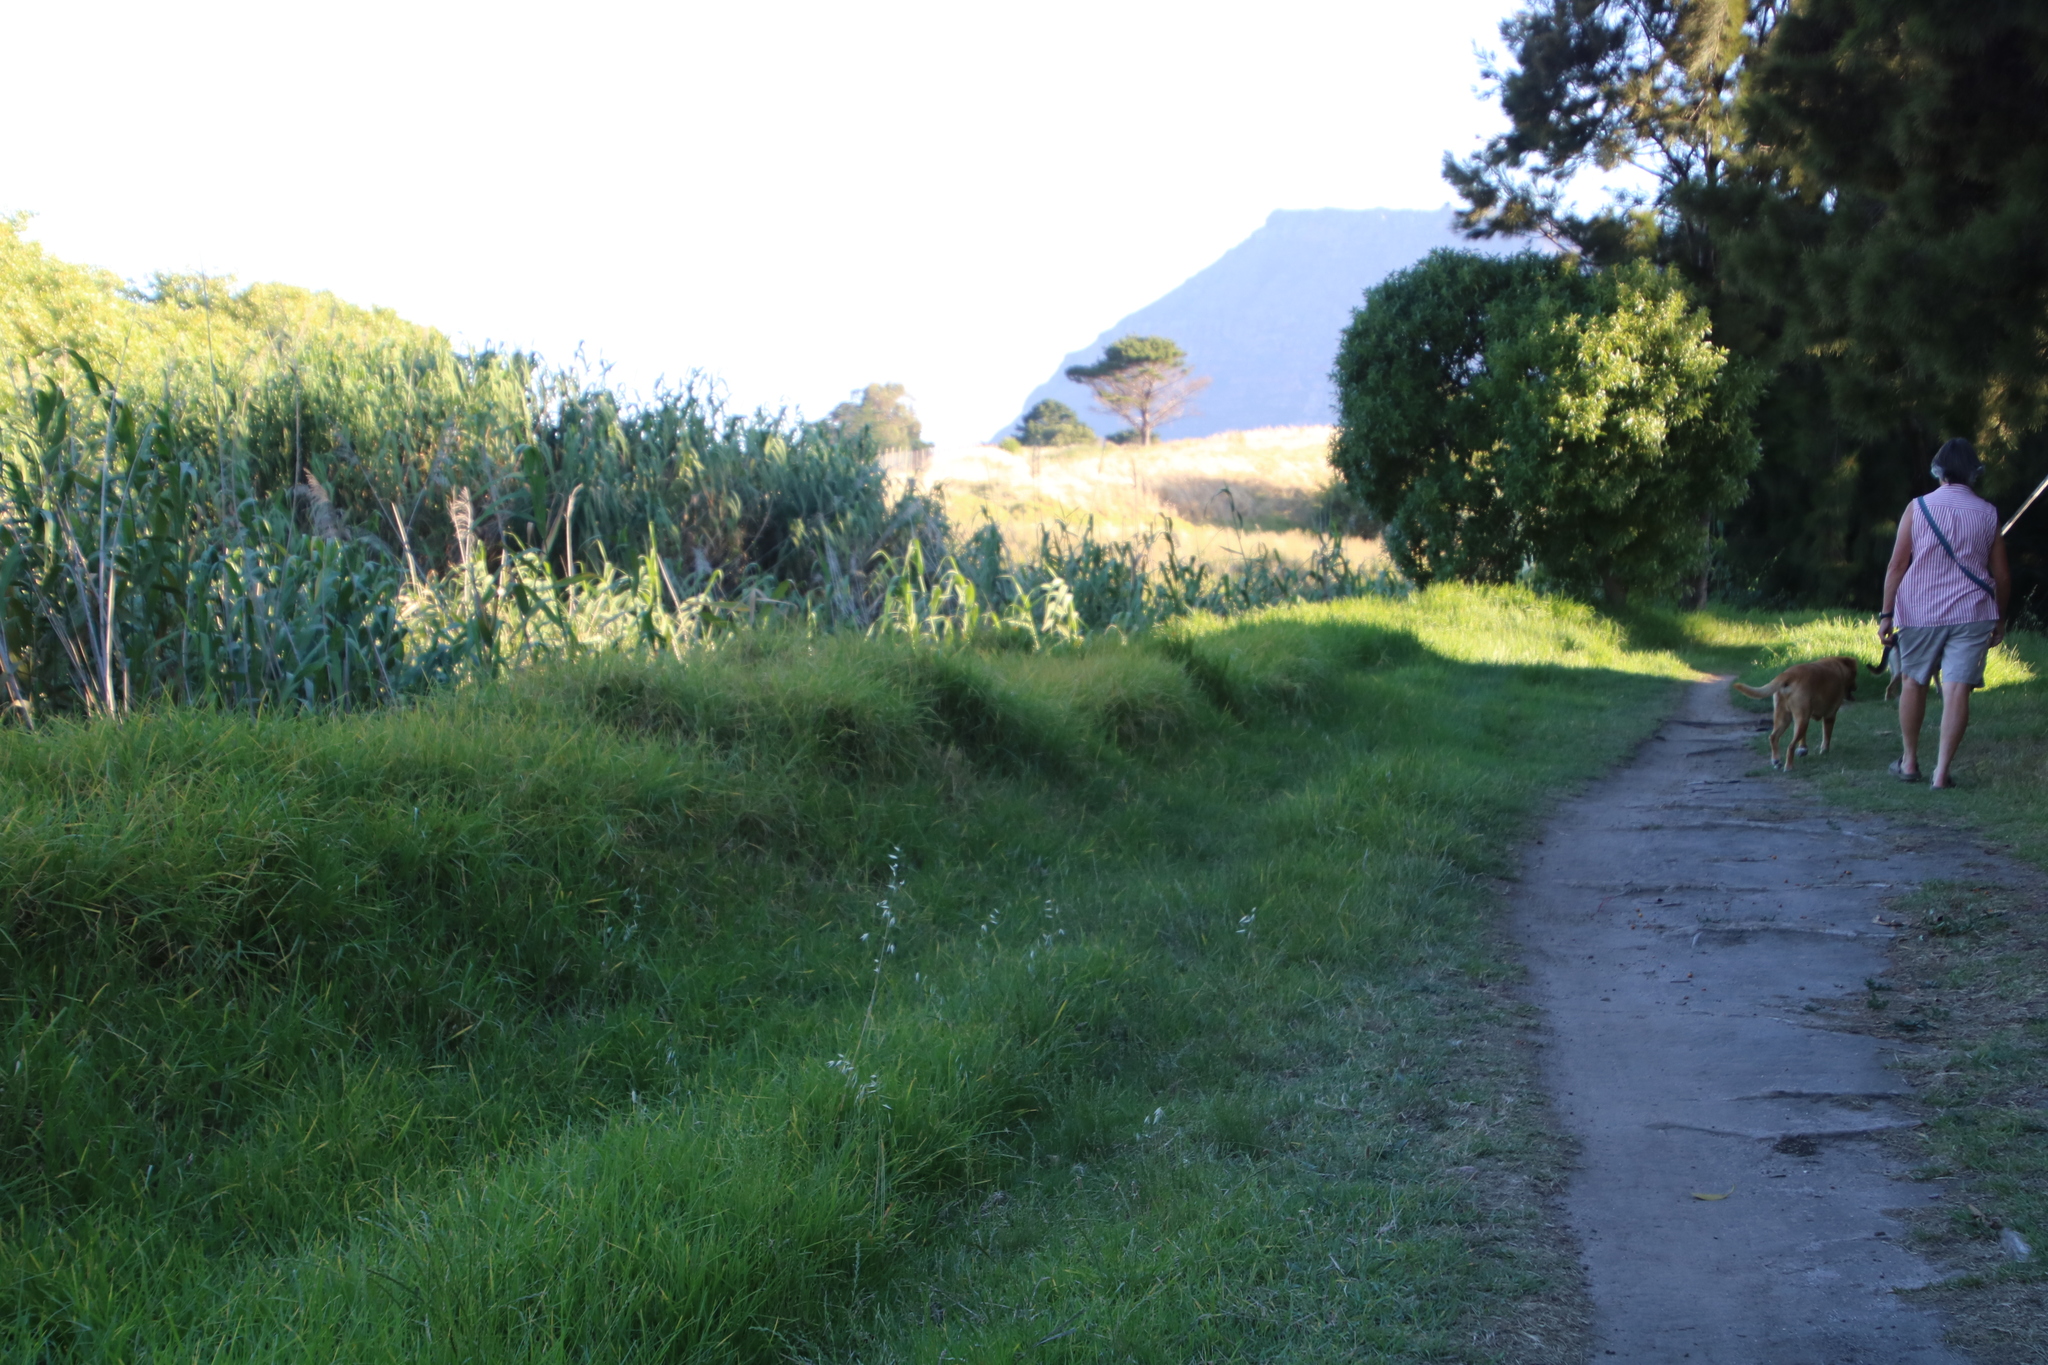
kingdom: Plantae
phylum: Tracheophyta
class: Liliopsida
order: Poales
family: Poaceae
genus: Cenchrus
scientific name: Cenchrus clandestinus
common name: Kikuyugrass
